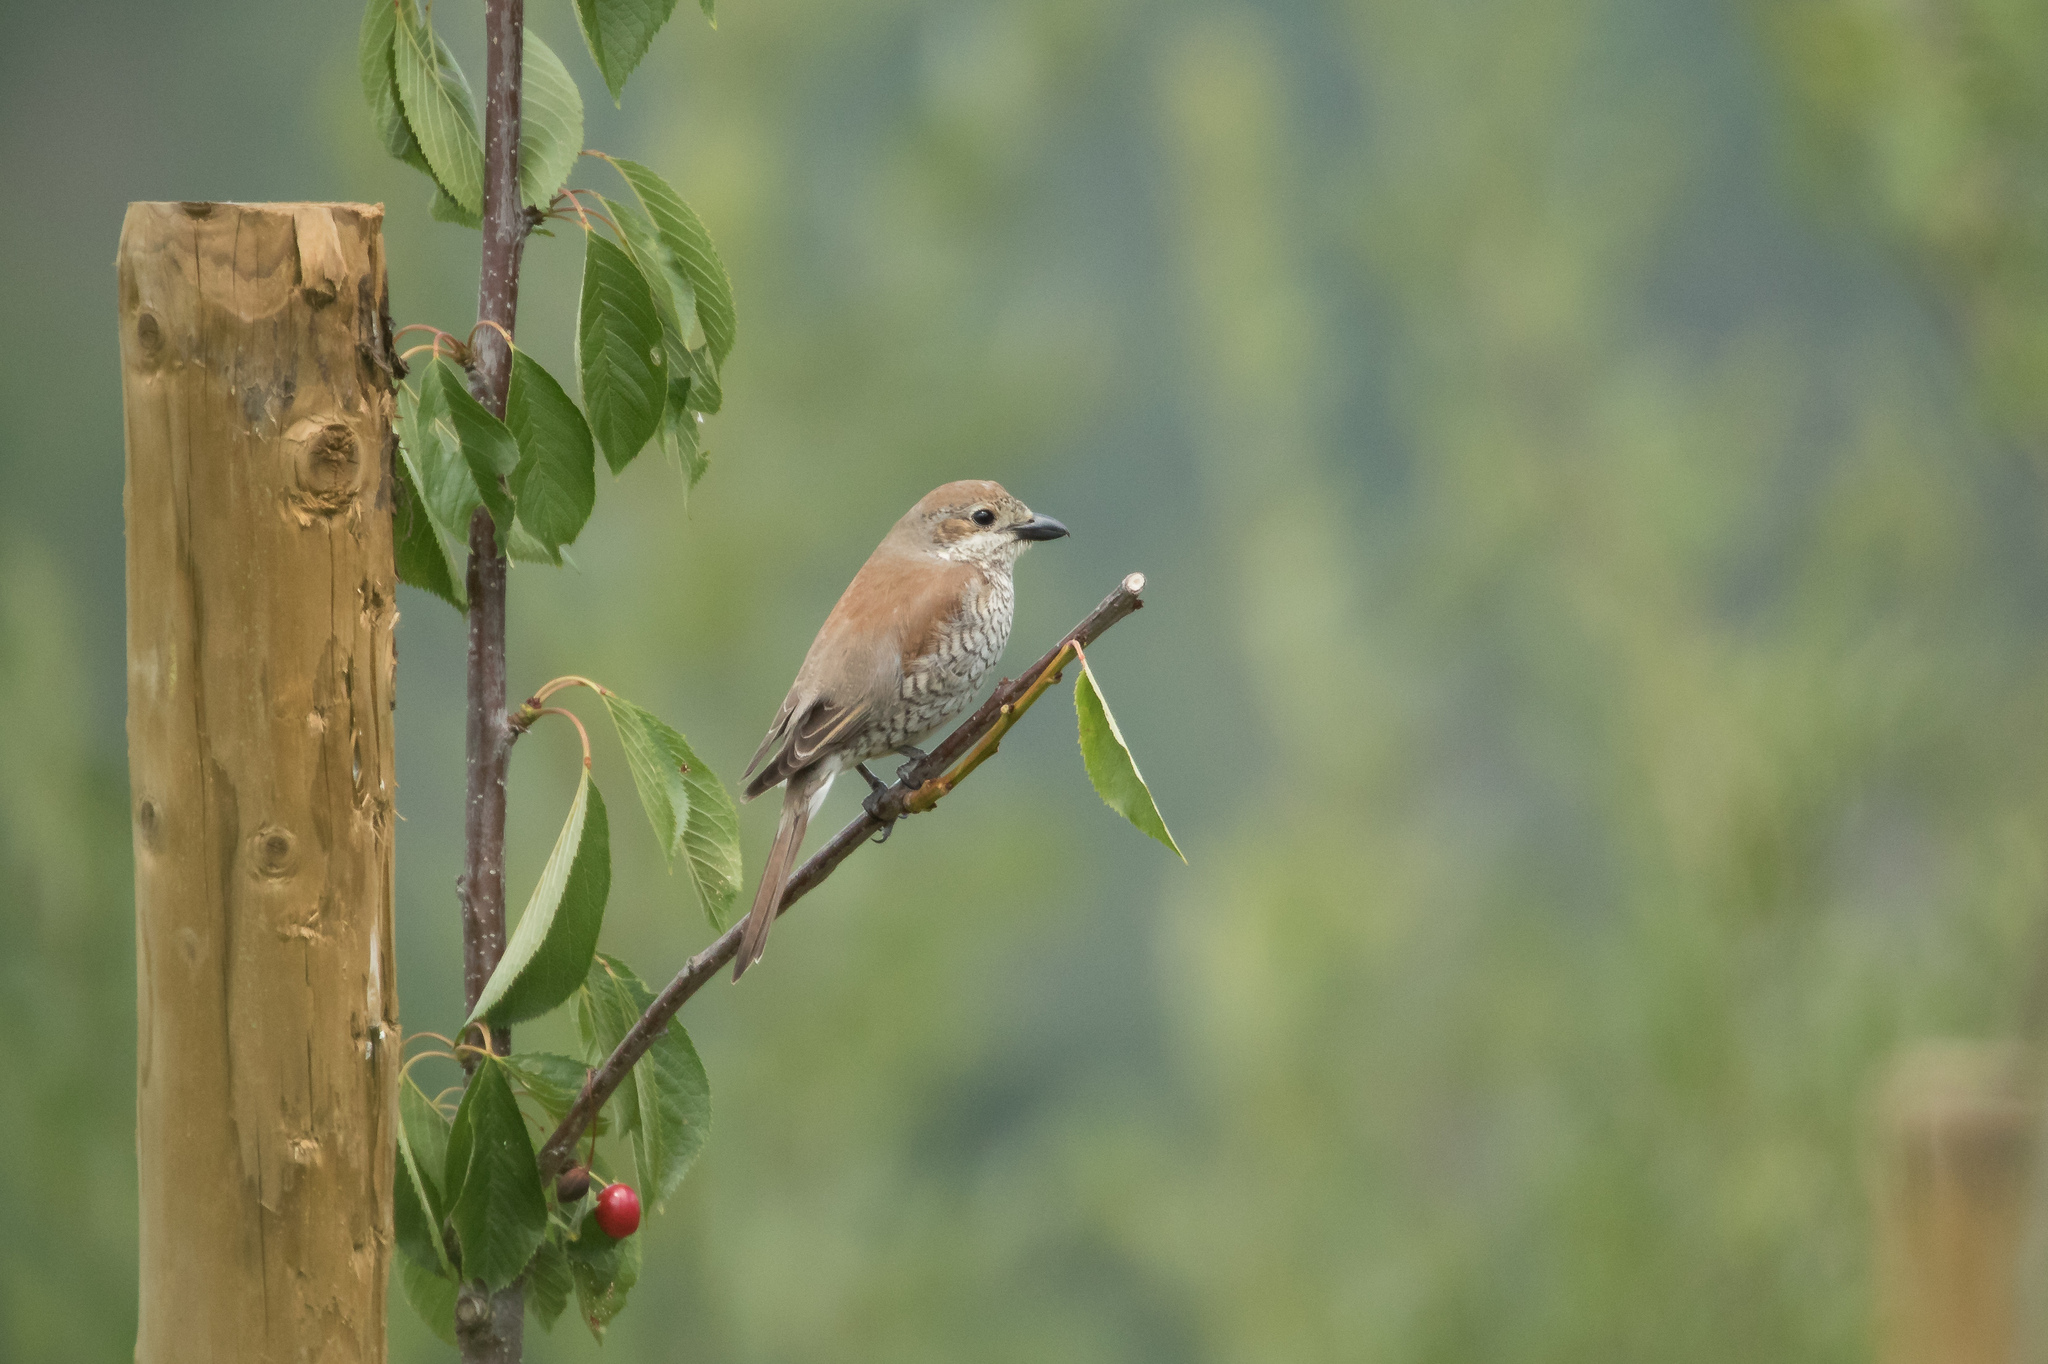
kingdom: Animalia
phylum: Chordata
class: Aves
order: Passeriformes
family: Laniidae
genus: Lanius
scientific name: Lanius collurio
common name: Red-backed shrike
